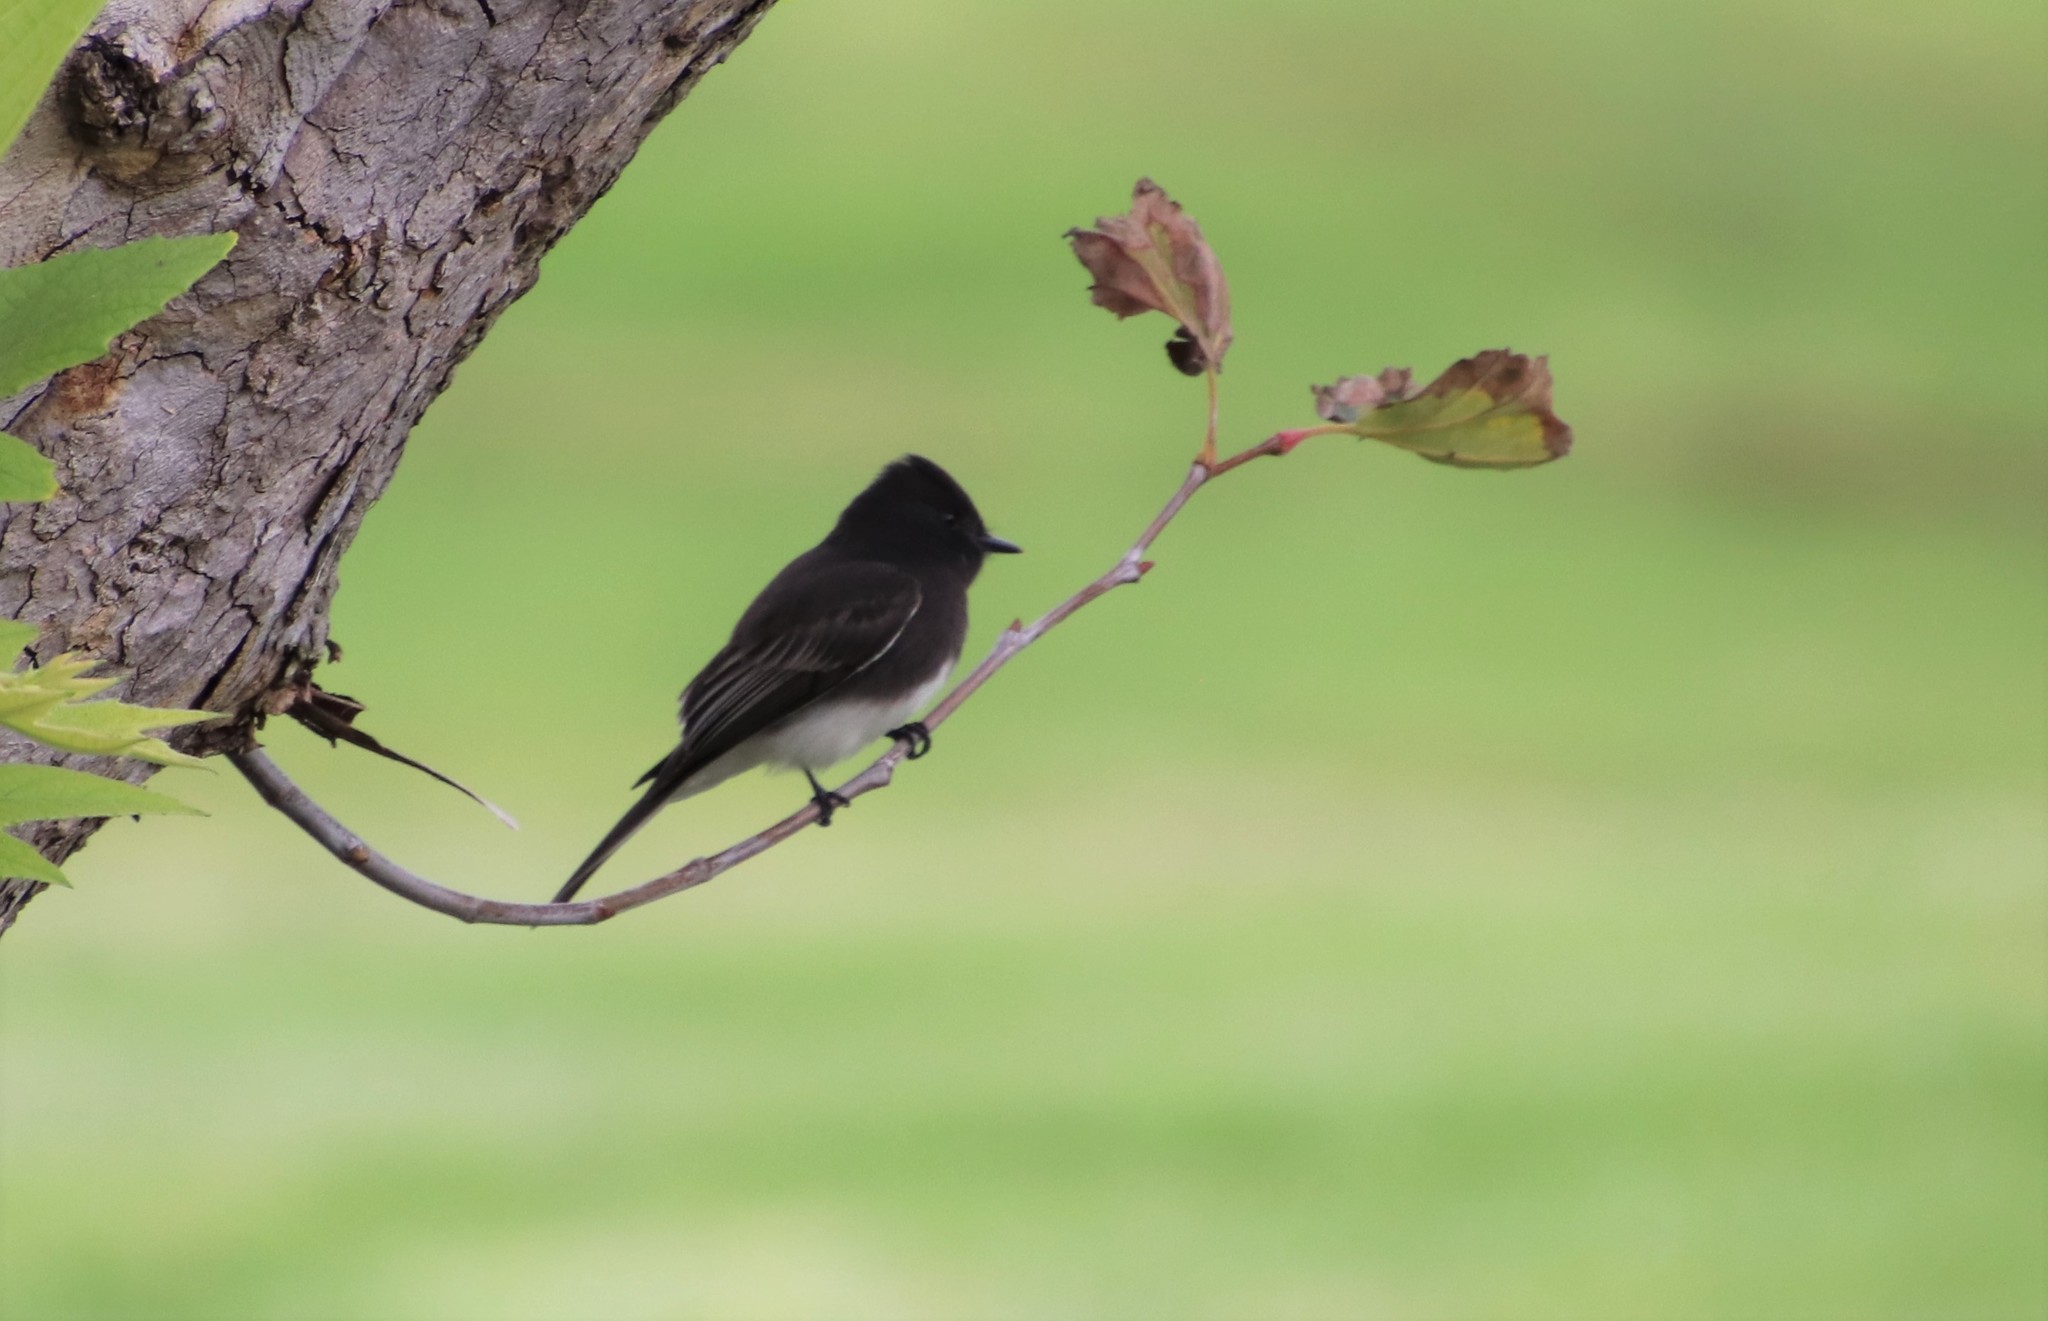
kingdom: Animalia
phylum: Chordata
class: Aves
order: Passeriformes
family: Tyrannidae
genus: Sayornis
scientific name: Sayornis nigricans
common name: Black phoebe
